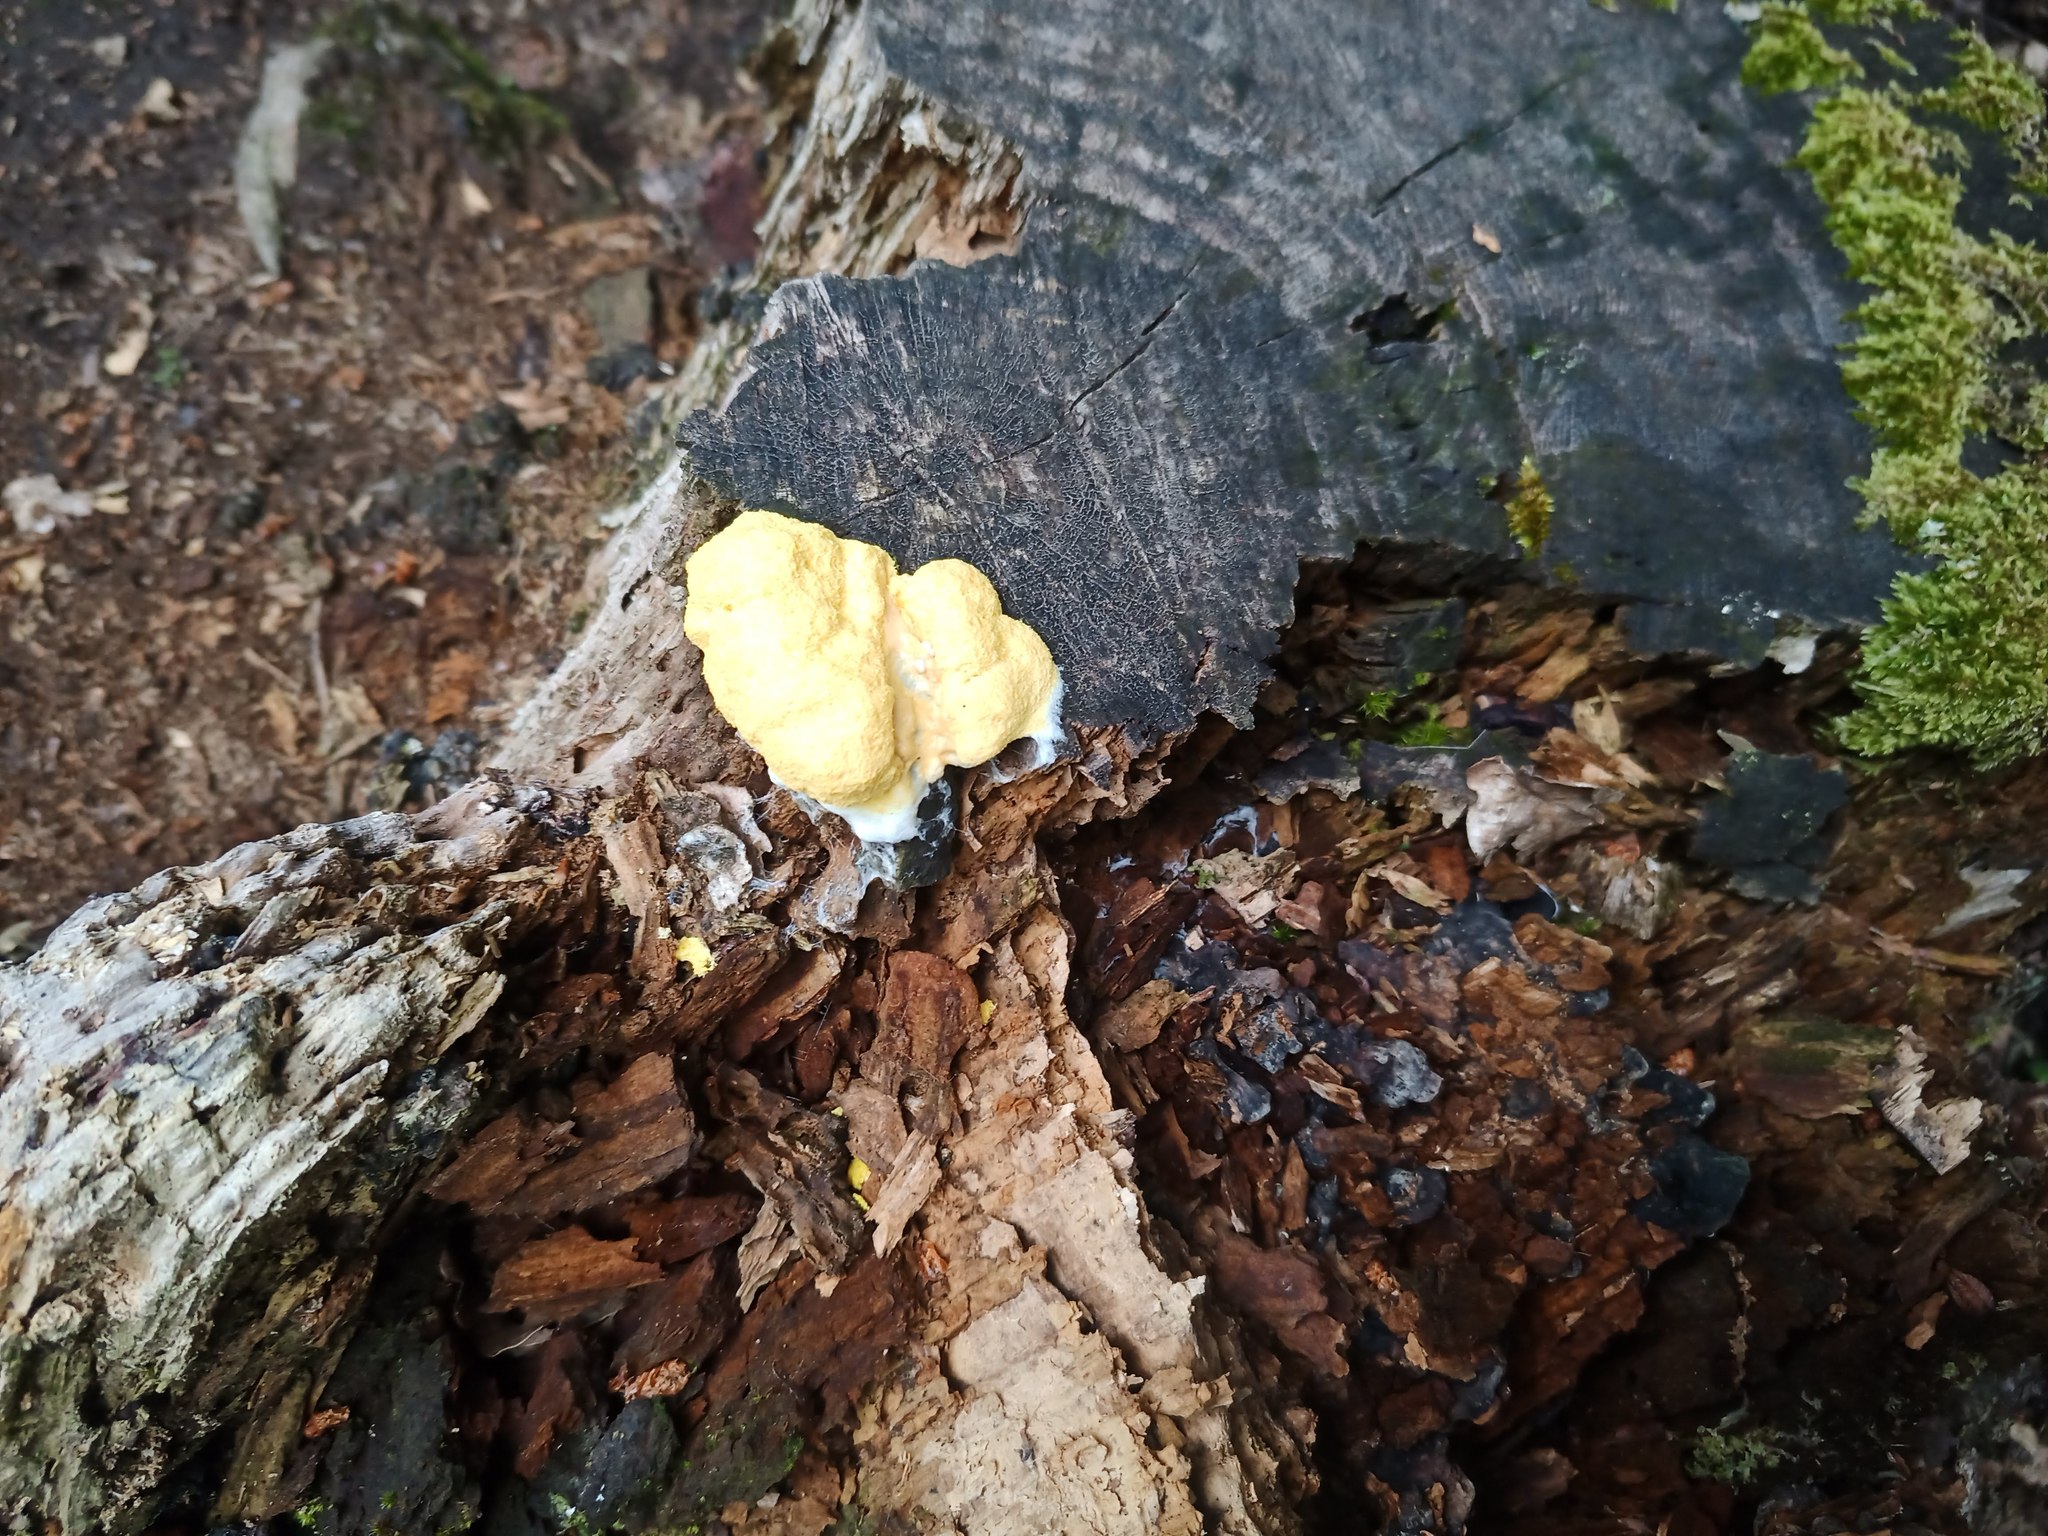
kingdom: Protozoa
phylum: Mycetozoa
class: Myxomycetes
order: Physarales
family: Physaraceae
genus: Fuligo
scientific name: Fuligo septica
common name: Dog vomit slime mold
